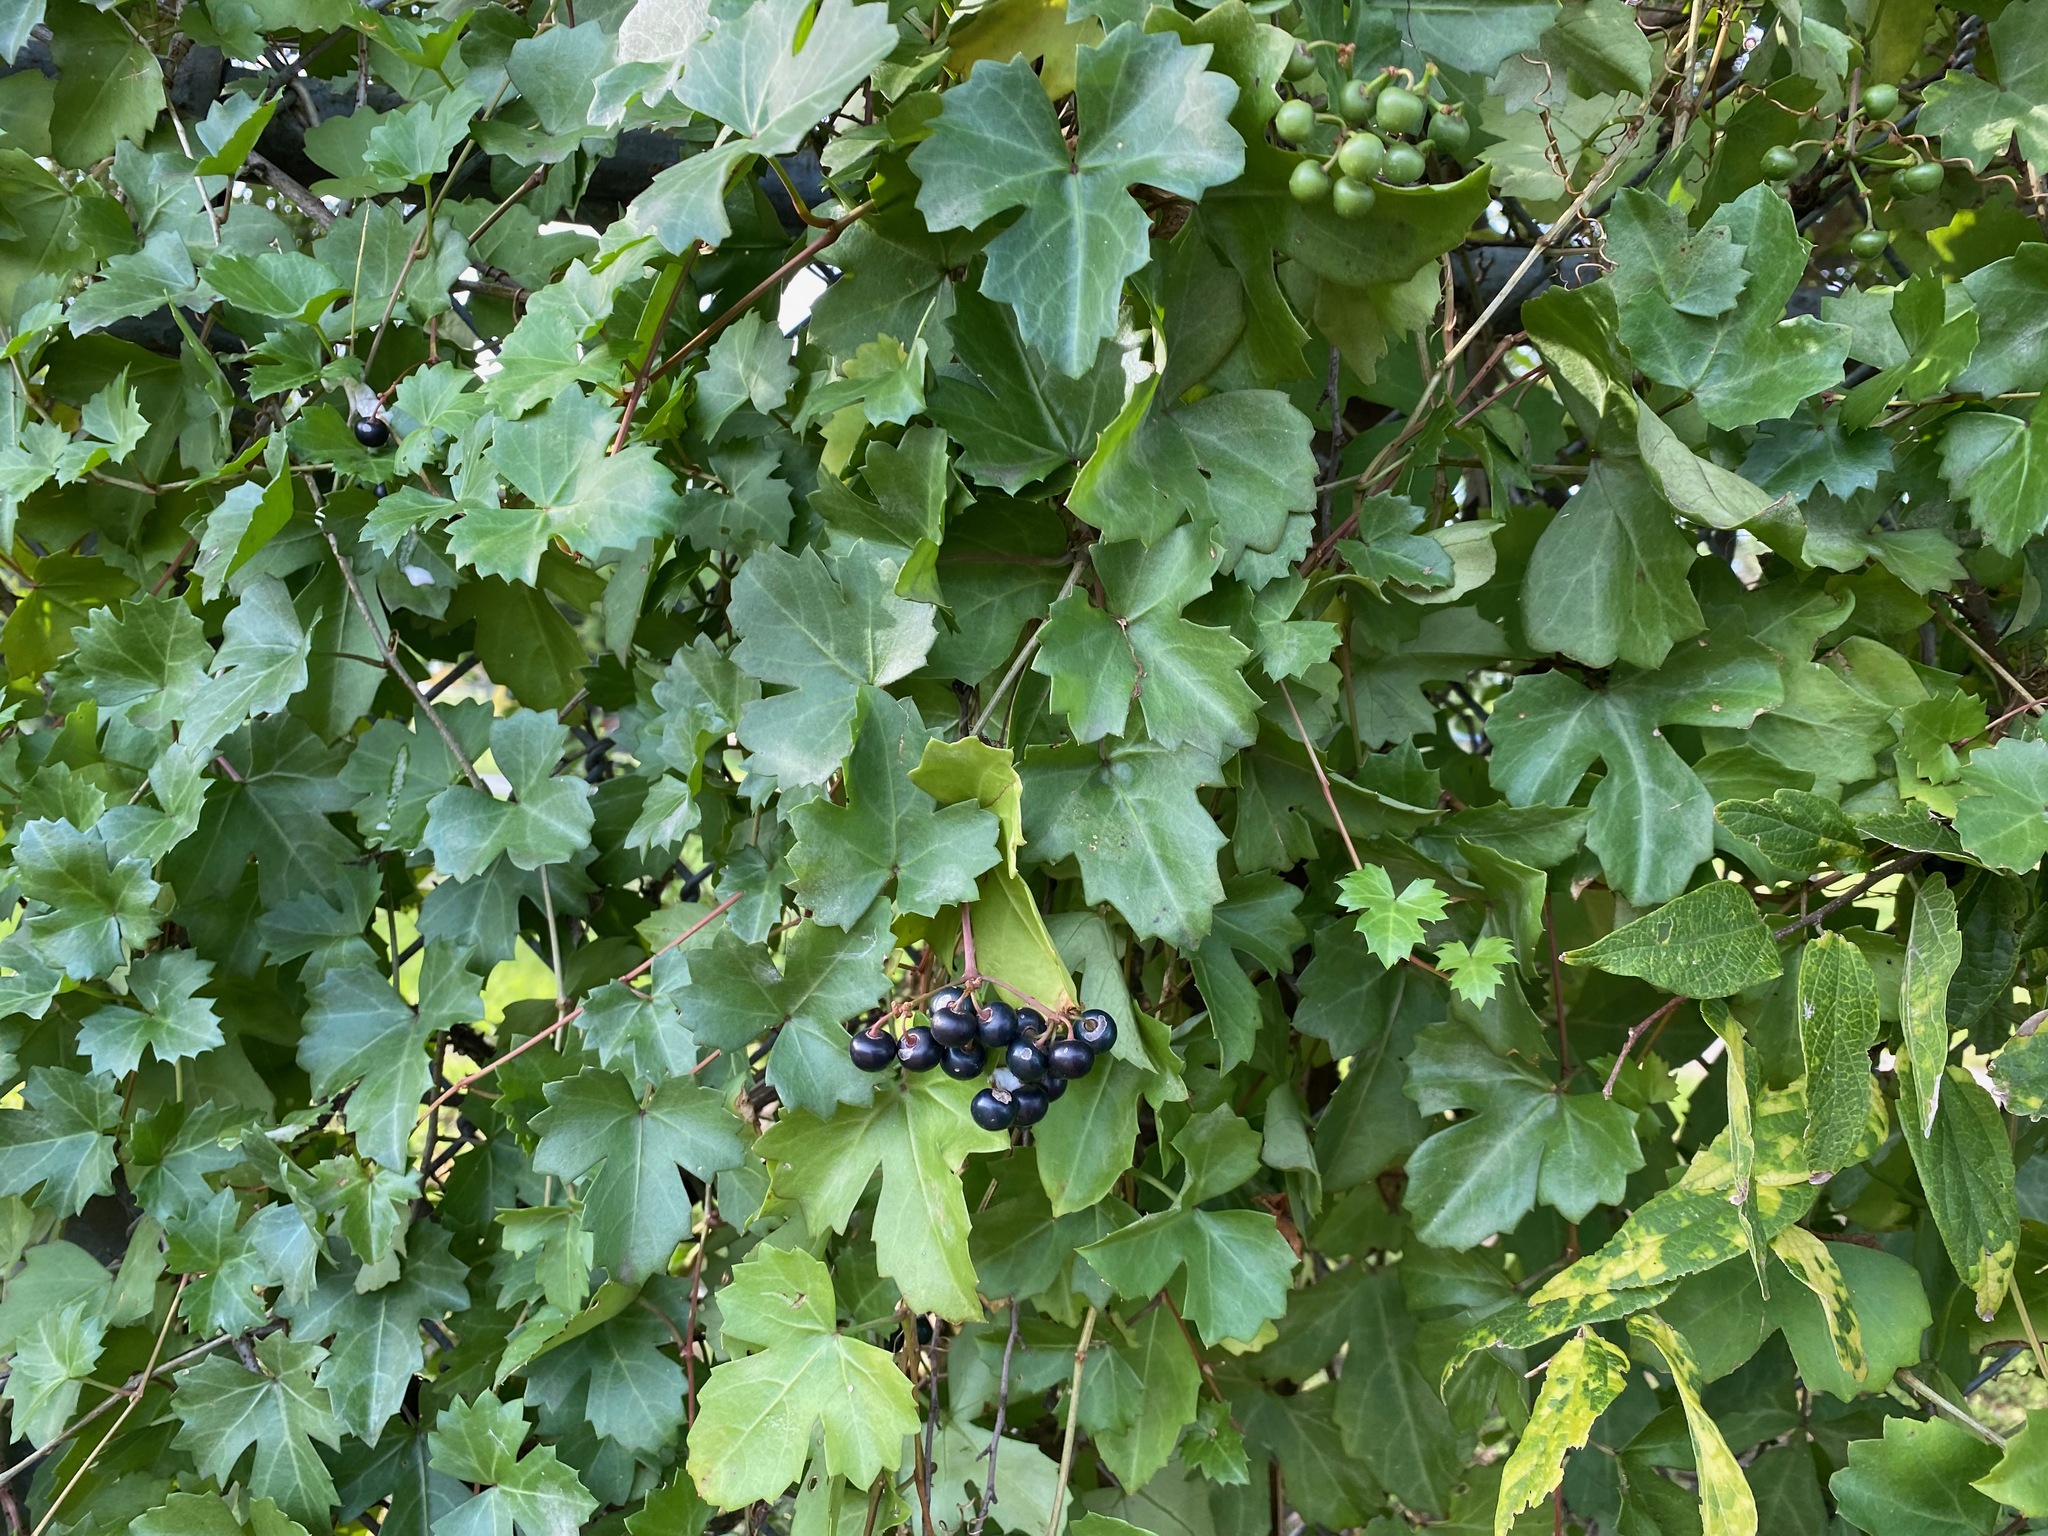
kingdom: Plantae
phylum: Tracheophyta
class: Magnoliopsida
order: Vitales
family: Vitaceae
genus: Cissus
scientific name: Cissus trifoliata
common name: Vine-sorrel
